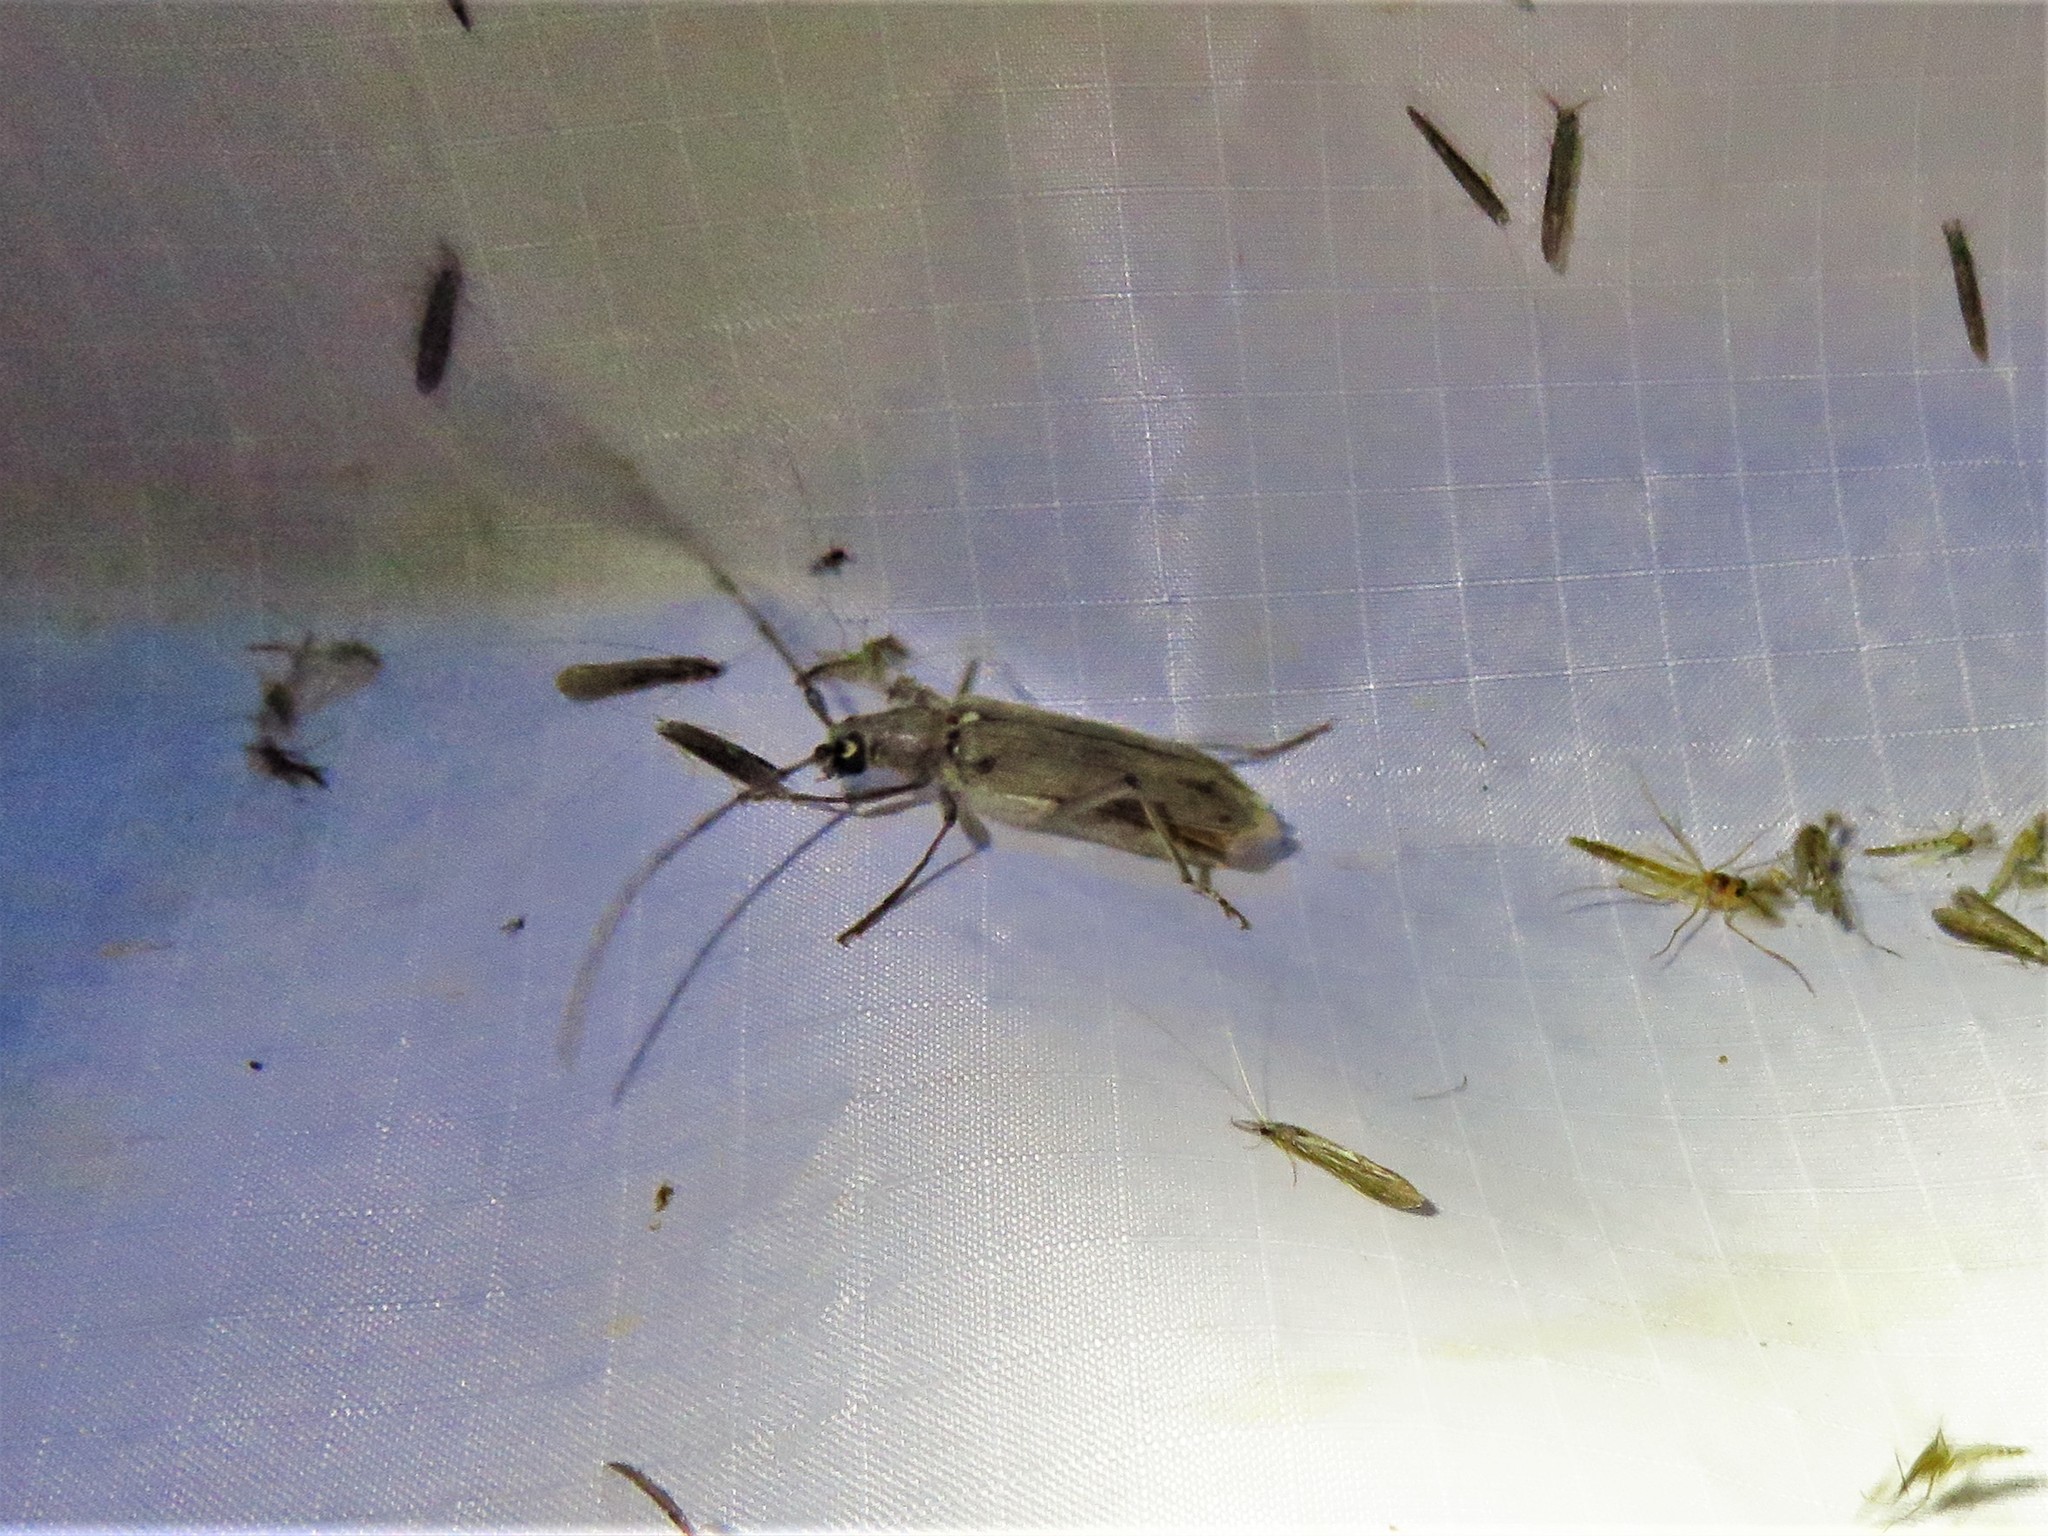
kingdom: Animalia
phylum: Arthropoda
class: Insecta
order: Coleoptera
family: Cerambycidae
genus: Knulliana
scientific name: Knulliana cincta
